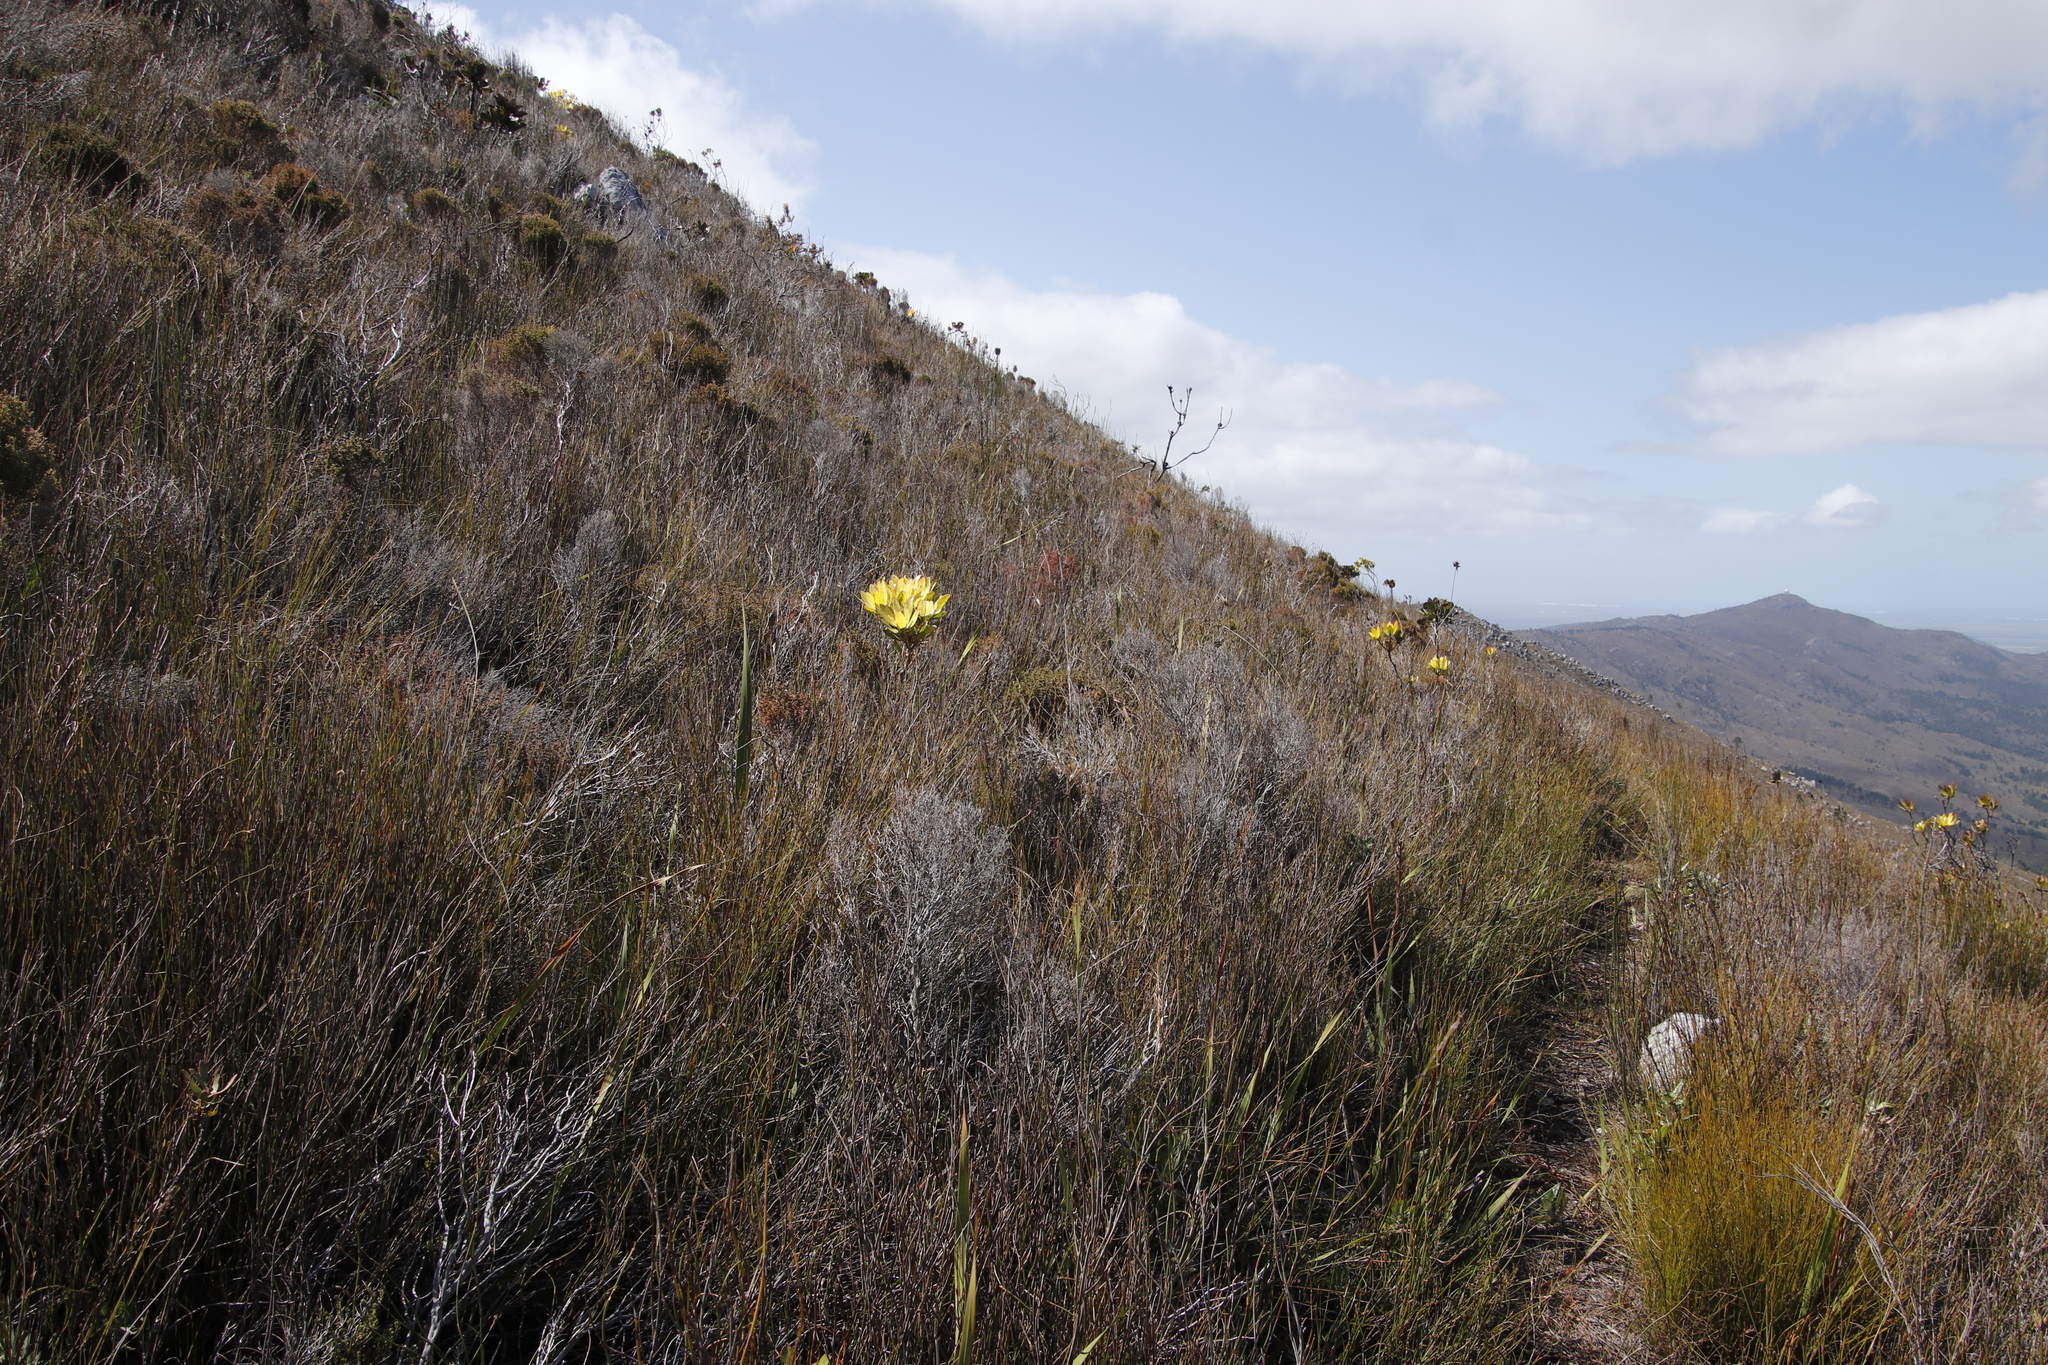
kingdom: Plantae
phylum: Tracheophyta
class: Magnoliopsida
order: Proteales
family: Proteaceae
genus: Leucadendron
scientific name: Leucadendron gandogeri
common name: Broad-leaf conebush
